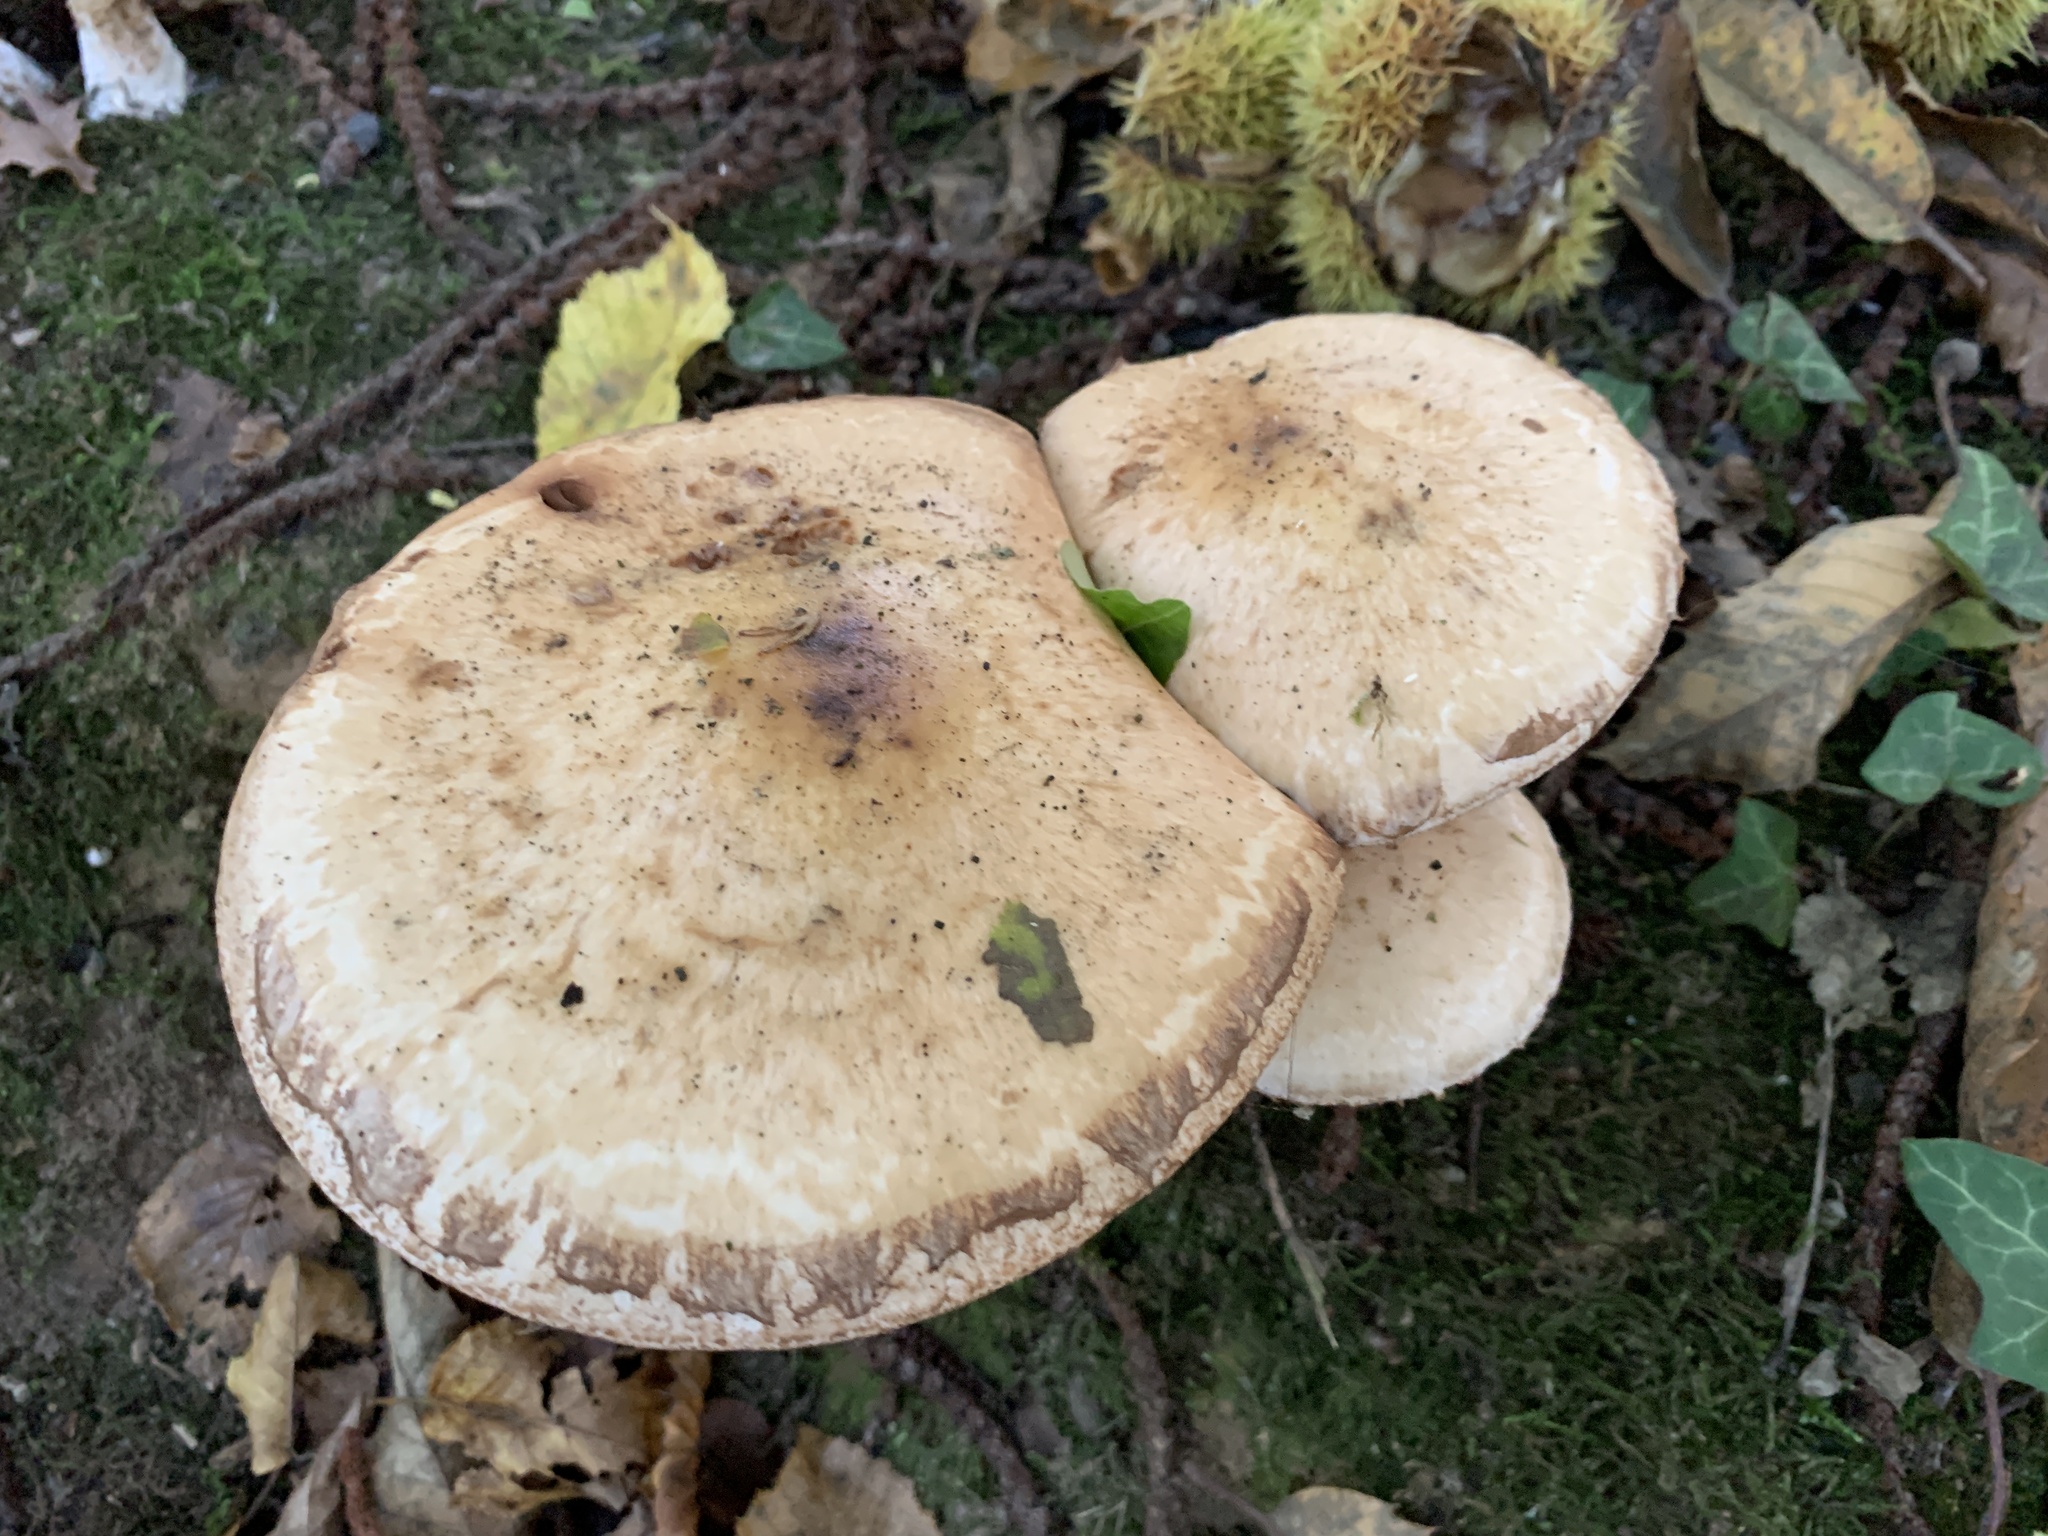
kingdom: Fungi
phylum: Basidiomycota
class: Agaricomycetes
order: Agaricales
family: Hymenogastraceae
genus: Hebeloma
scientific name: Hebeloma radicosum
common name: Rooting poisonpie
